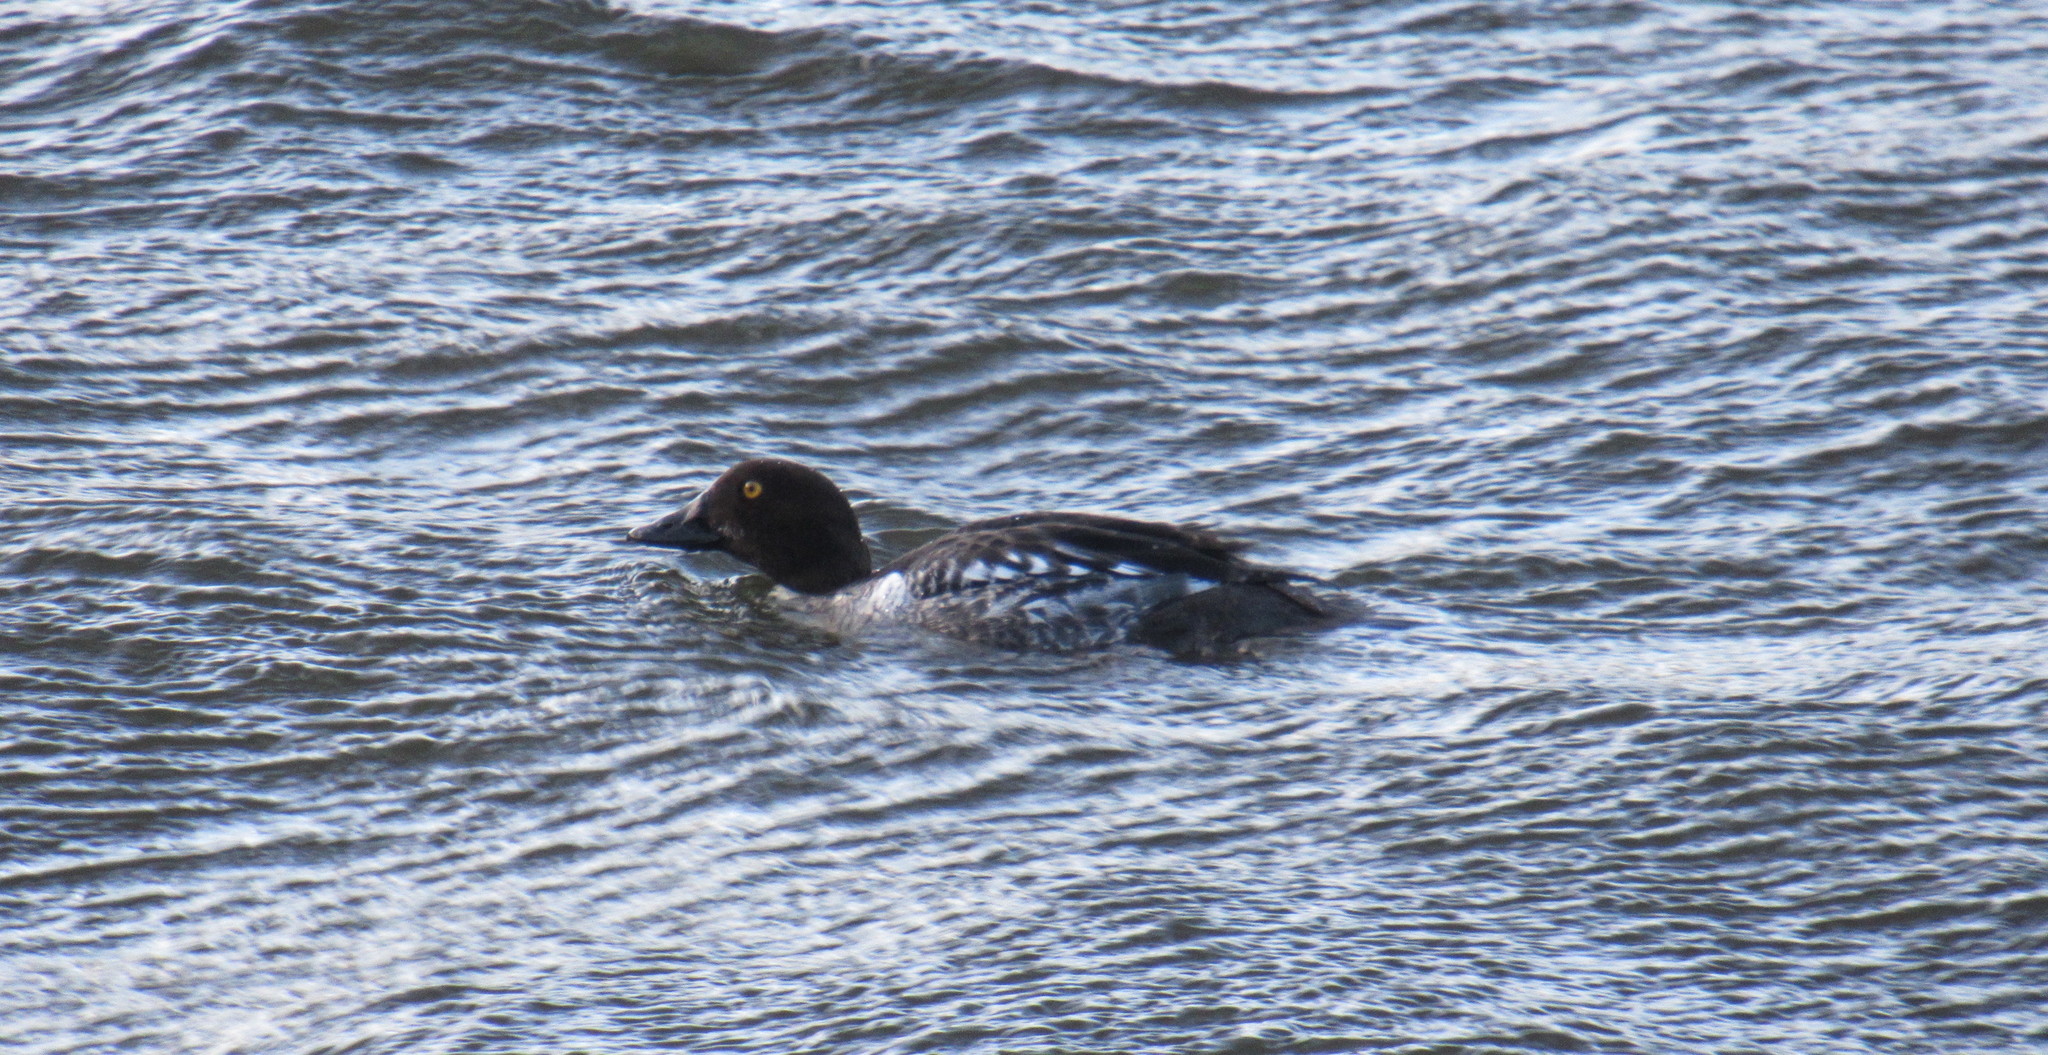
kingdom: Animalia
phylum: Chordata
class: Aves
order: Anseriformes
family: Anatidae
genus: Bucephala
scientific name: Bucephala clangula
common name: Common goldeneye
